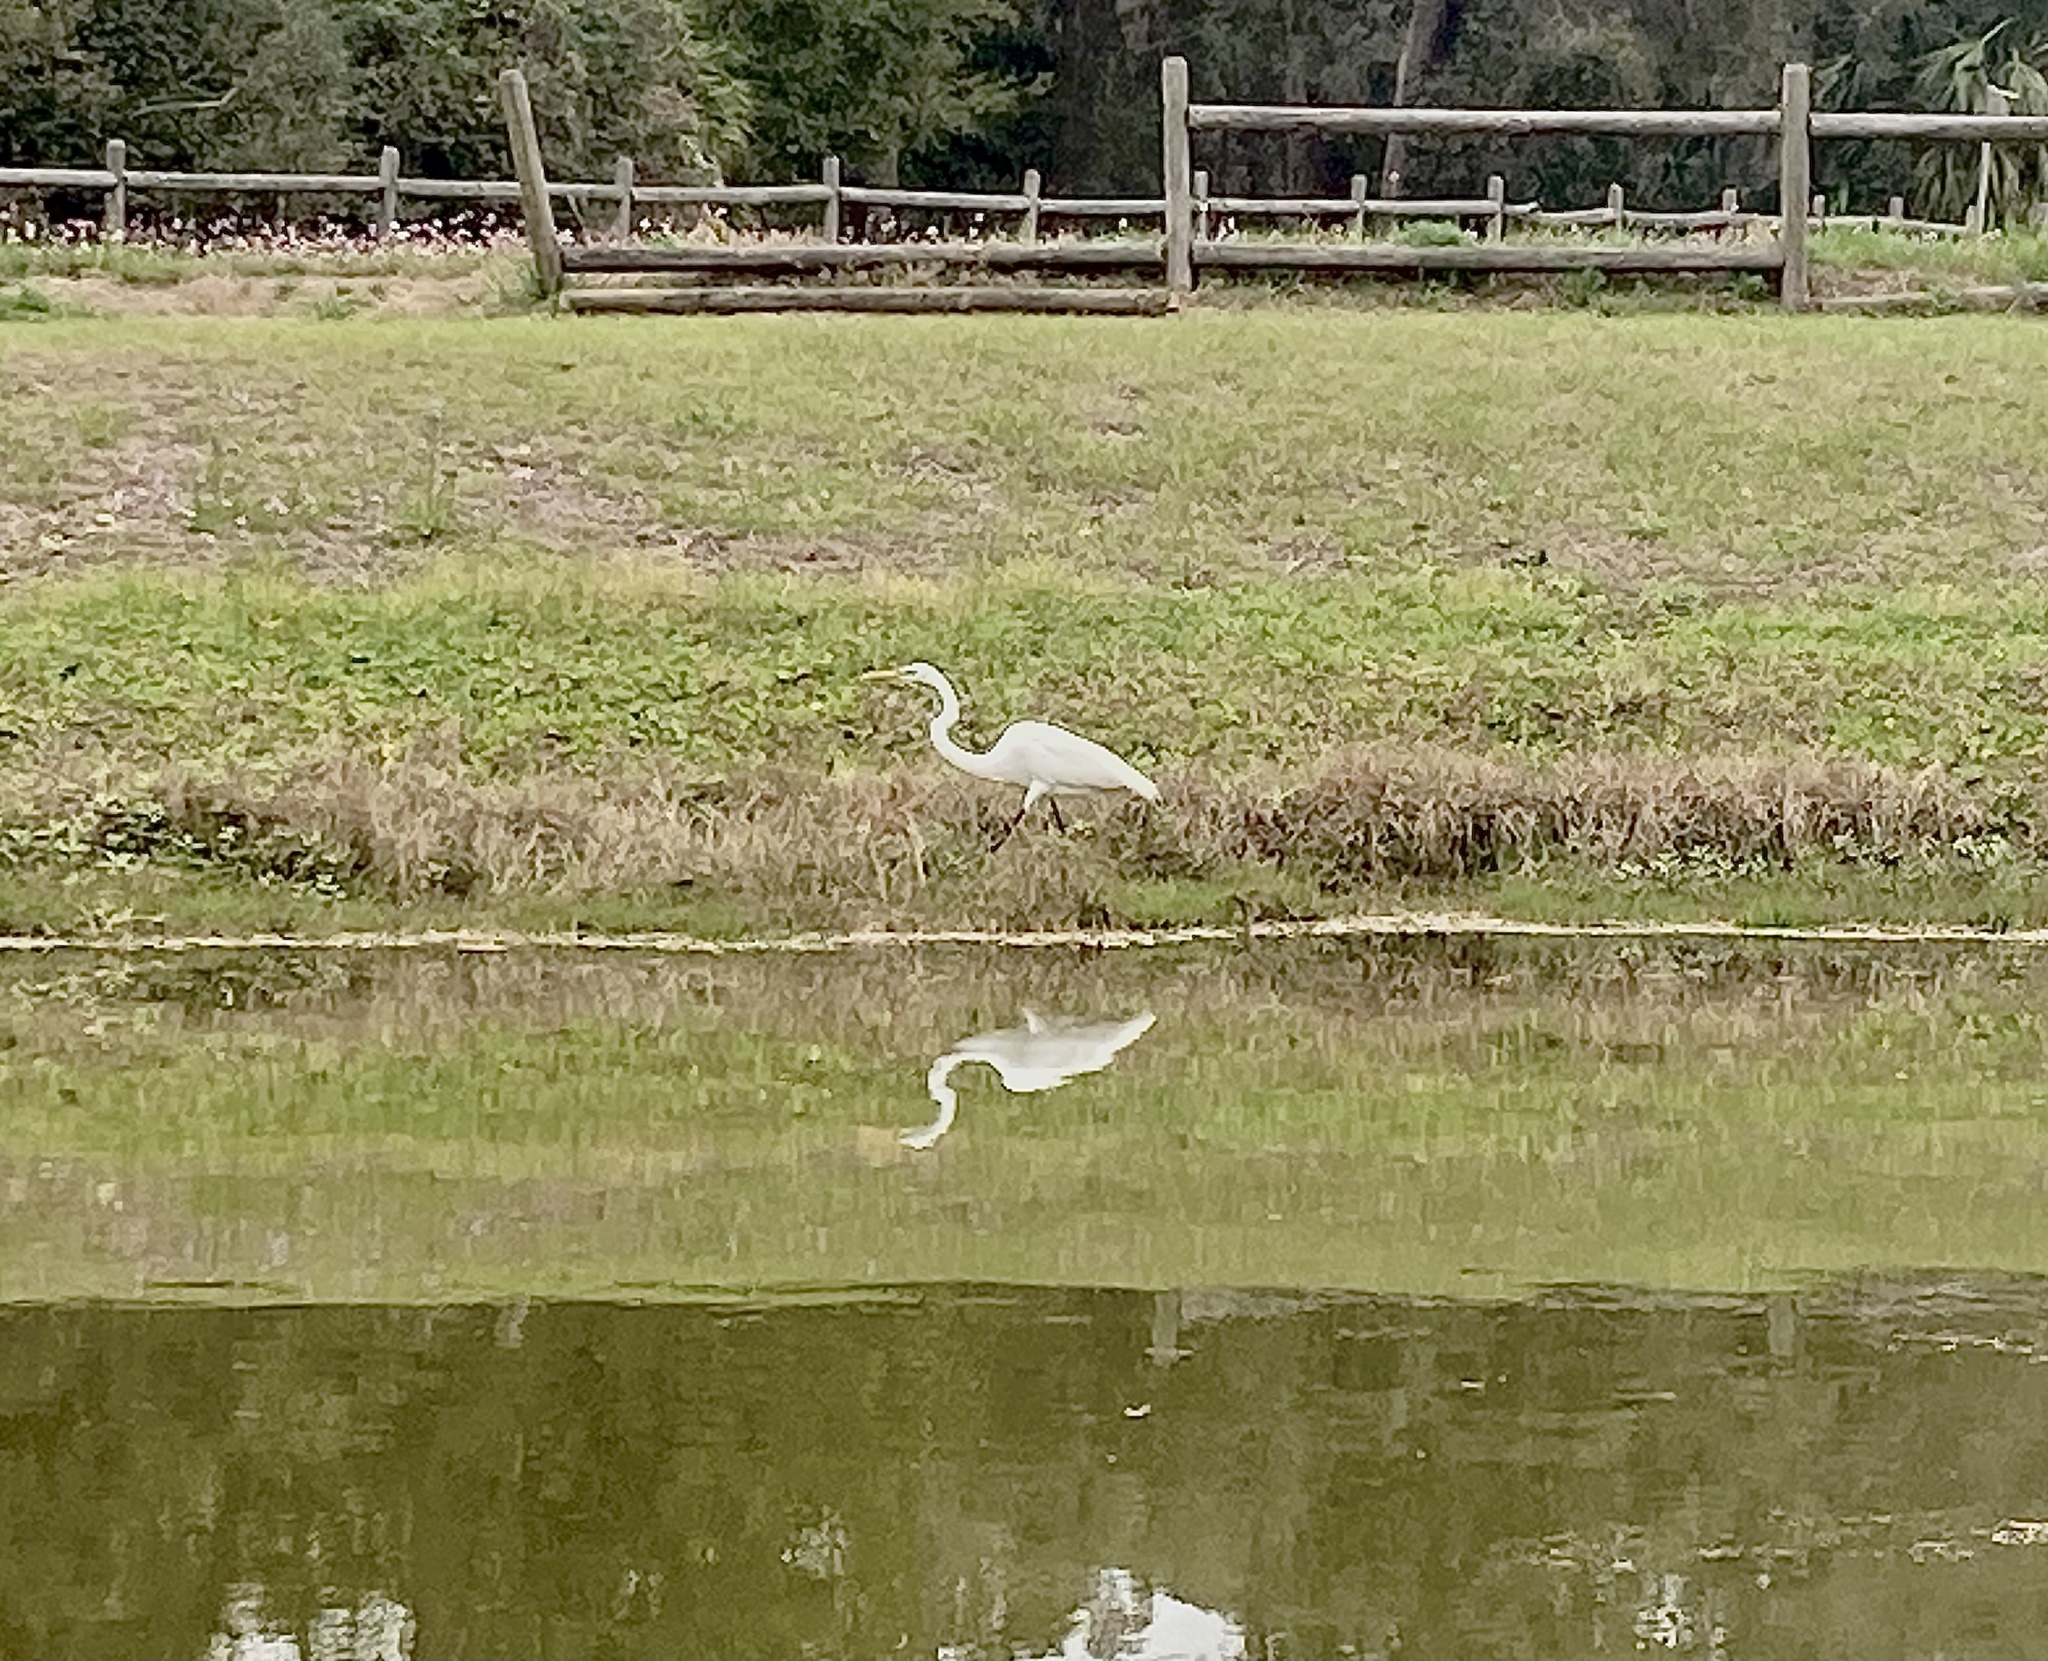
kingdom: Animalia
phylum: Chordata
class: Aves
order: Pelecaniformes
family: Ardeidae
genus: Ardea
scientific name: Ardea alba
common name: Great egret
